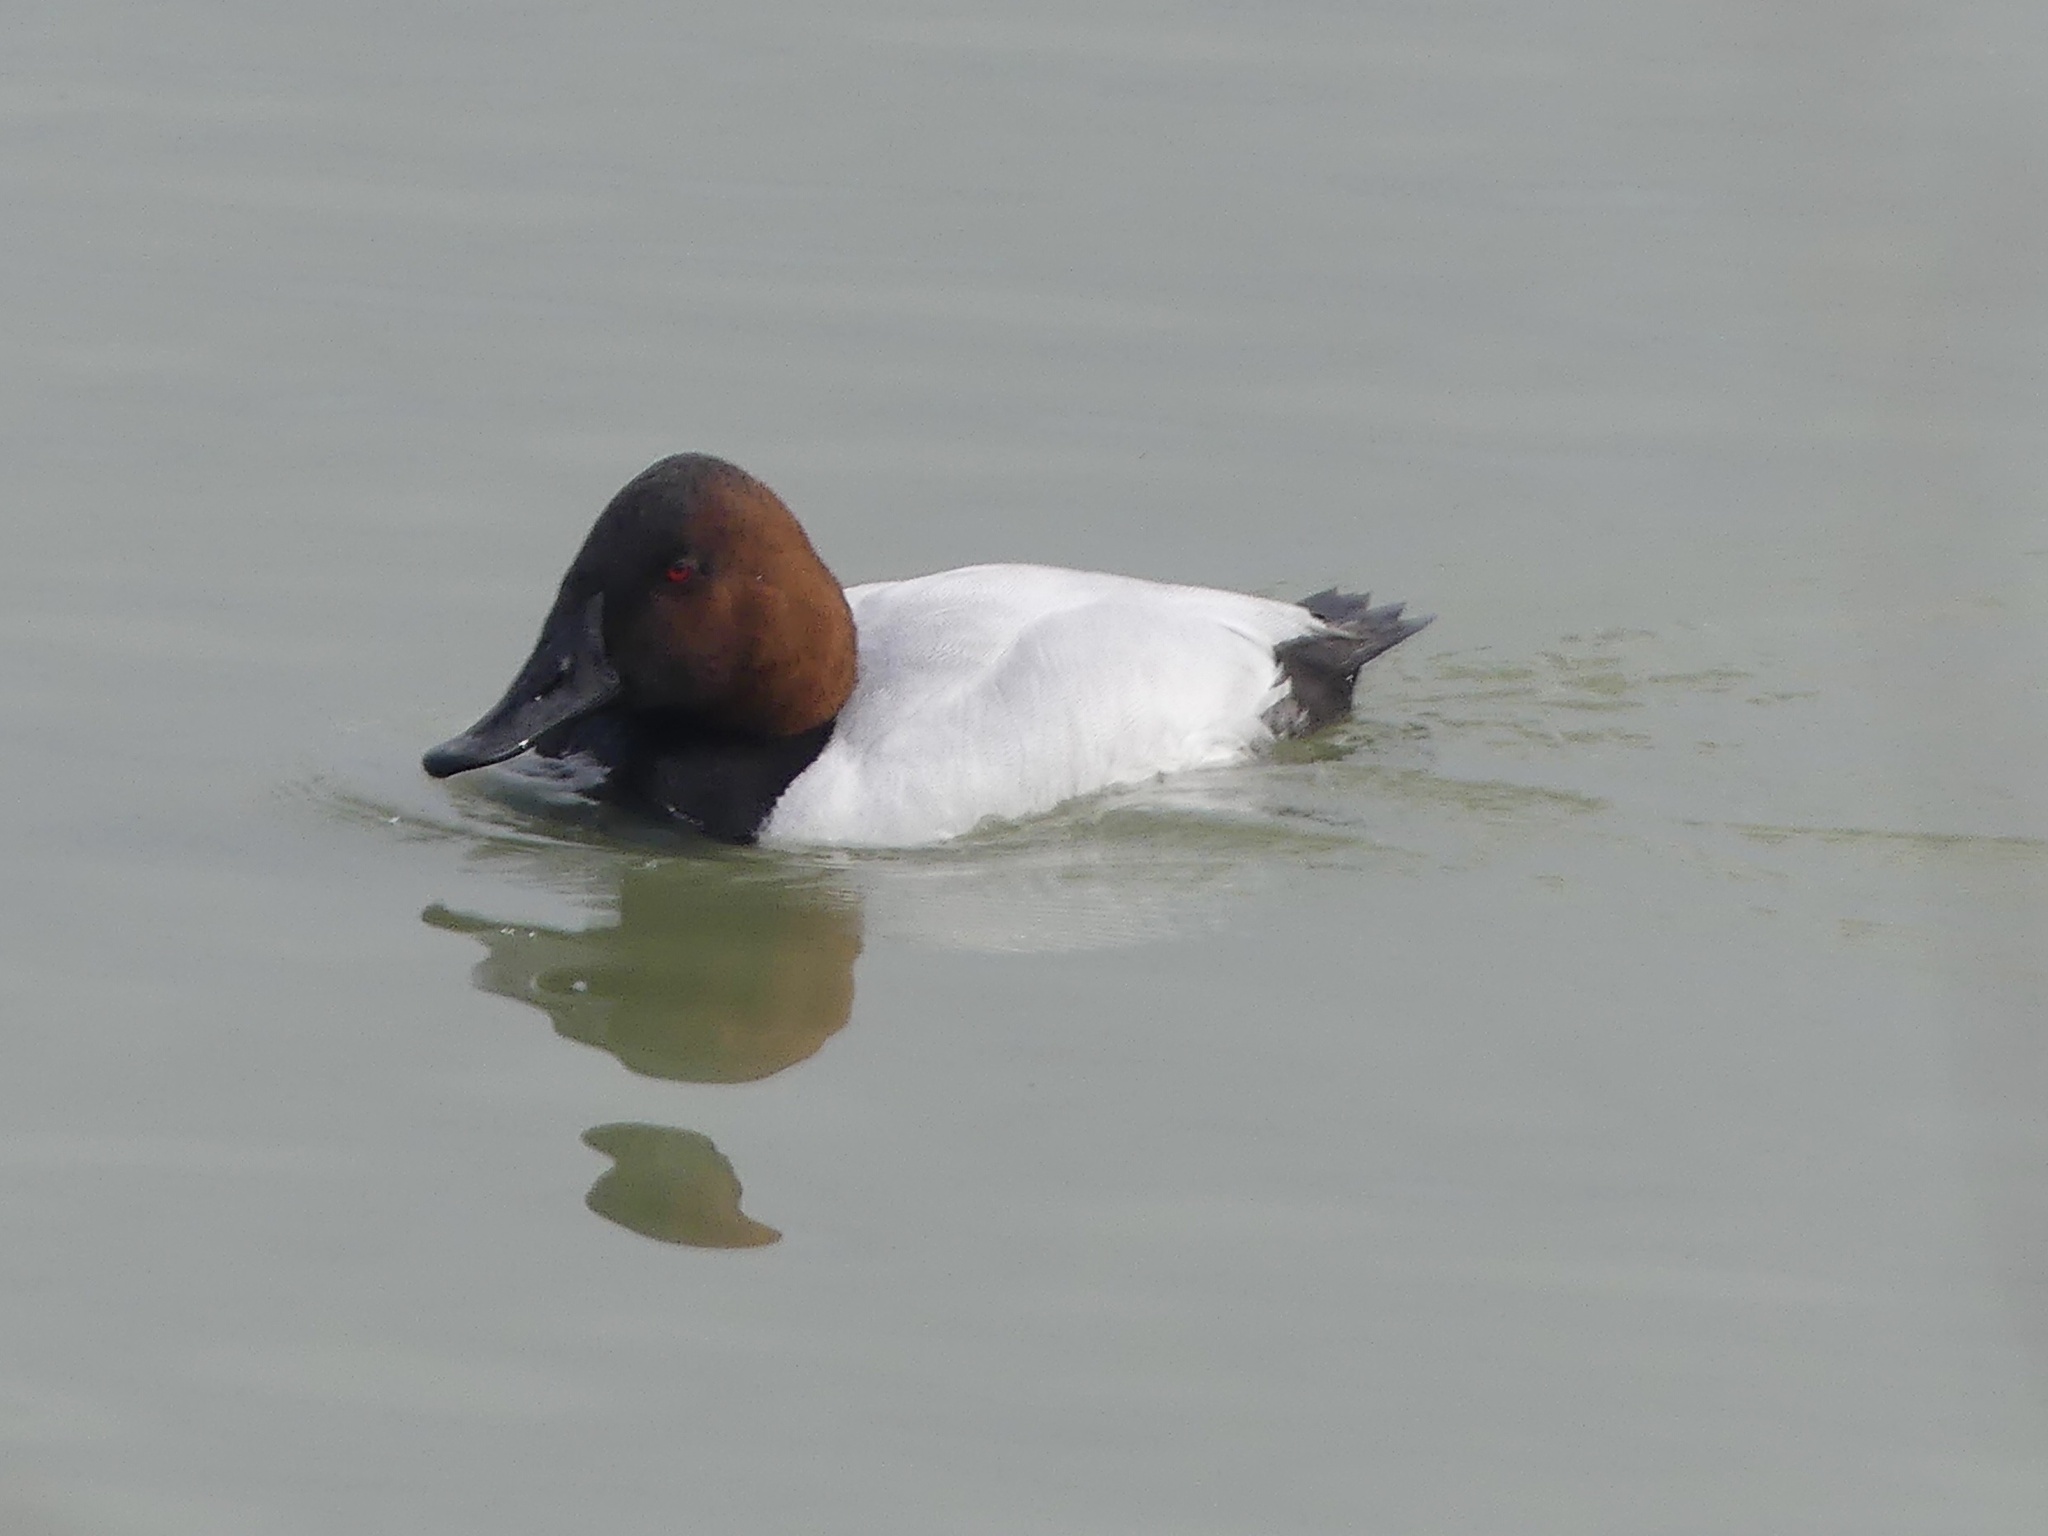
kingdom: Animalia
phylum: Chordata
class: Aves
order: Anseriformes
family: Anatidae
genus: Aythya
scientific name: Aythya valisineria
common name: Canvasback
